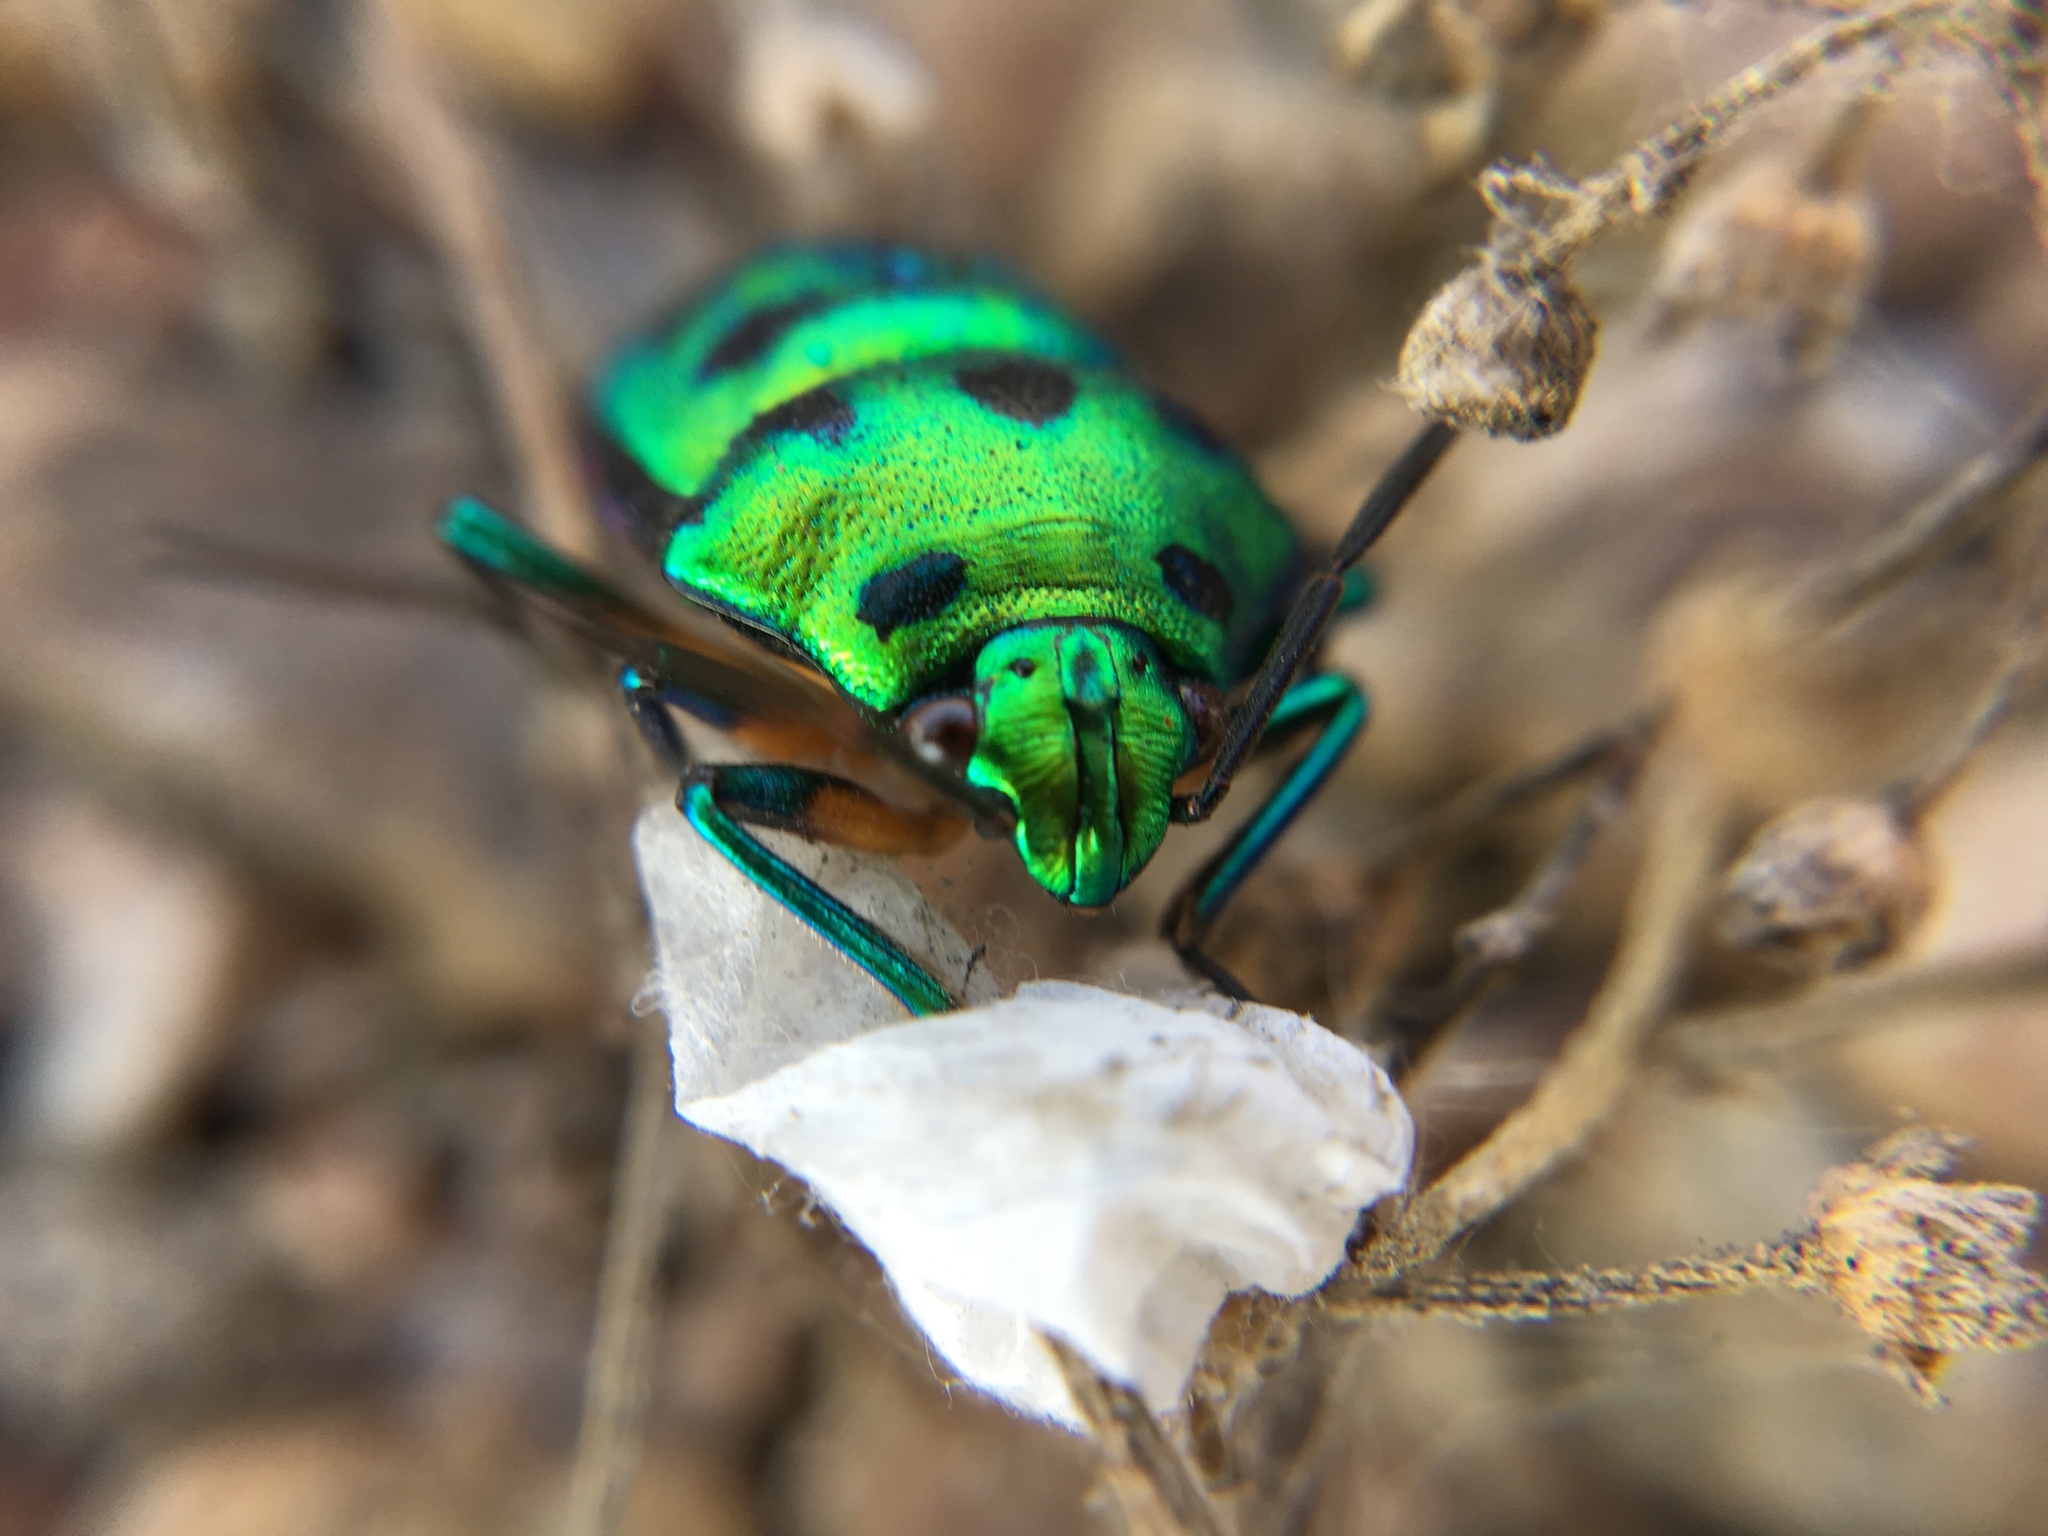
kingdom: Animalia
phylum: Arthropoda
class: Insecta
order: Hemiptera
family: Scutelleridae
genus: Chrysocoris
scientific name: Chrysocoris stollii
